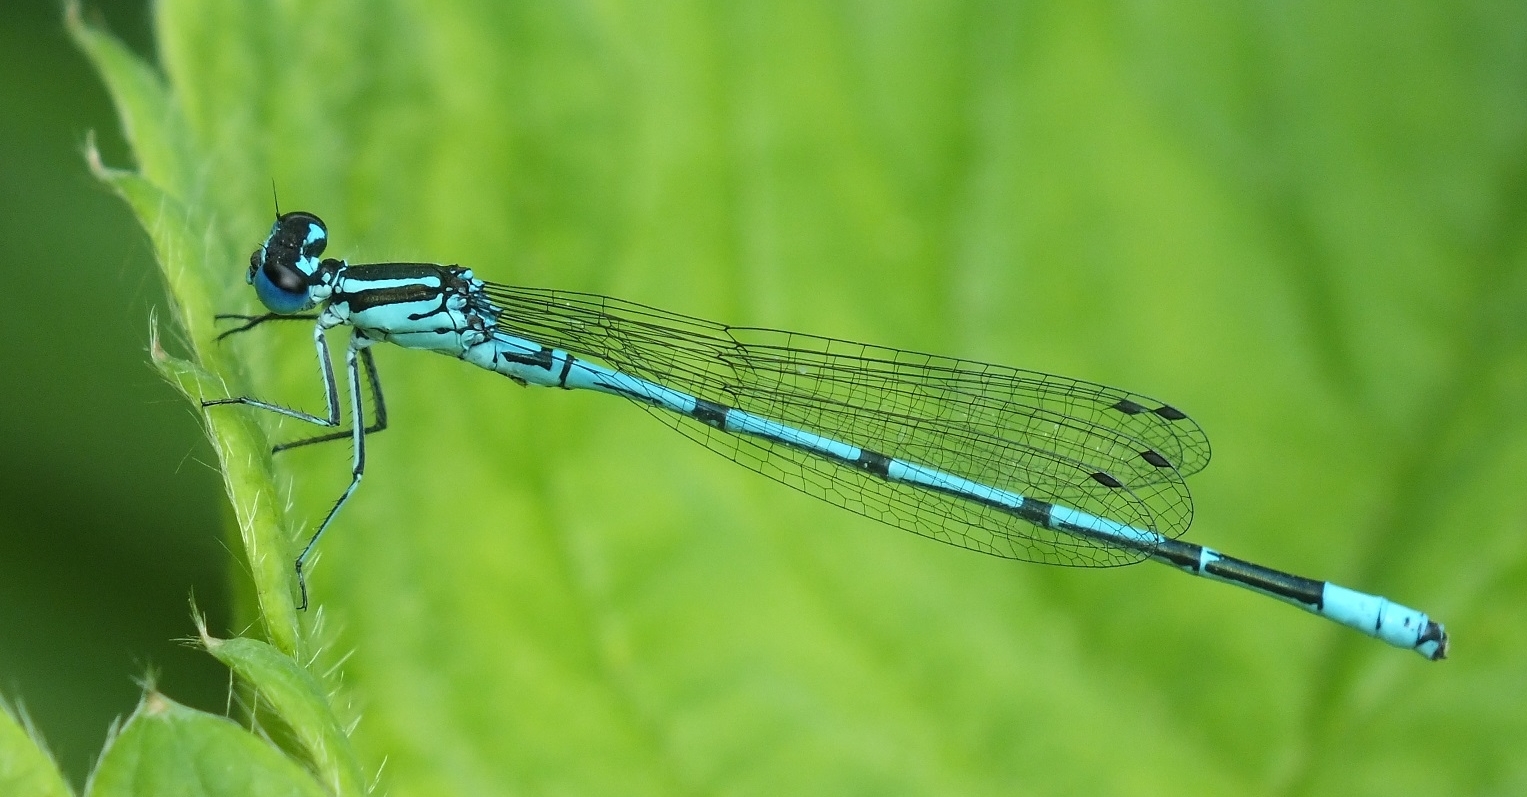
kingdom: Animalia
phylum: Arthropoda
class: Insecta
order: Odonata
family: Coenagrionidae
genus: Coenagrion
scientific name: Coenagrion puella
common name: Azure damselfly
